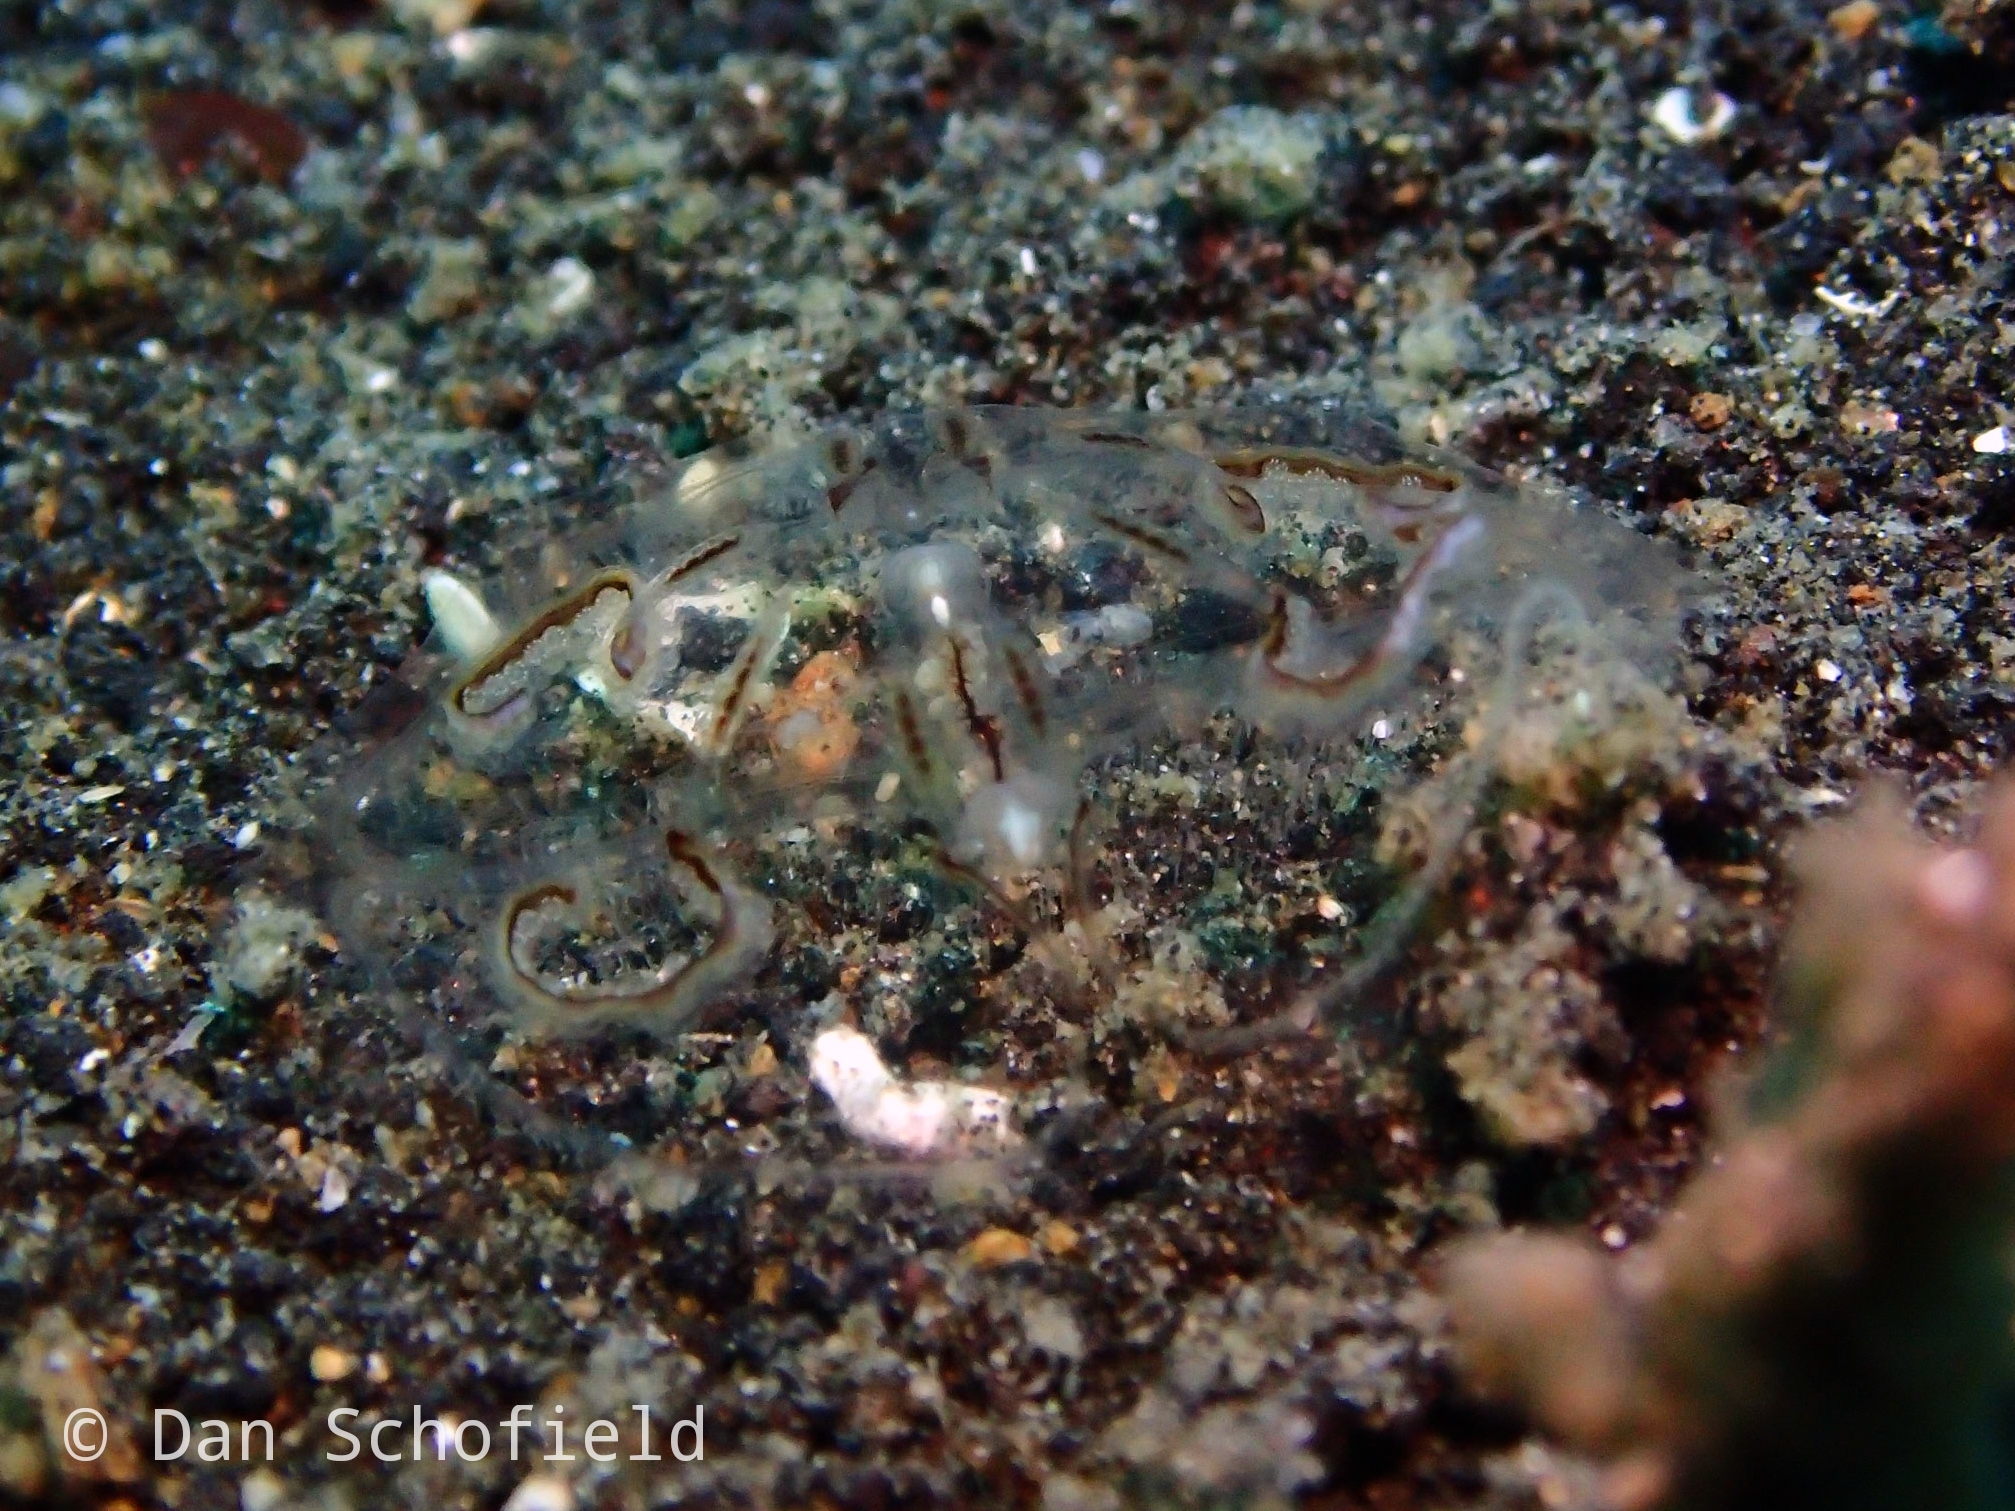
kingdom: Animalia
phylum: Ctenophora
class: Tentaculata
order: Lobata
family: Lobatolampeidae
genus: Lobatolampea
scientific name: Lobatolampea tetragona
